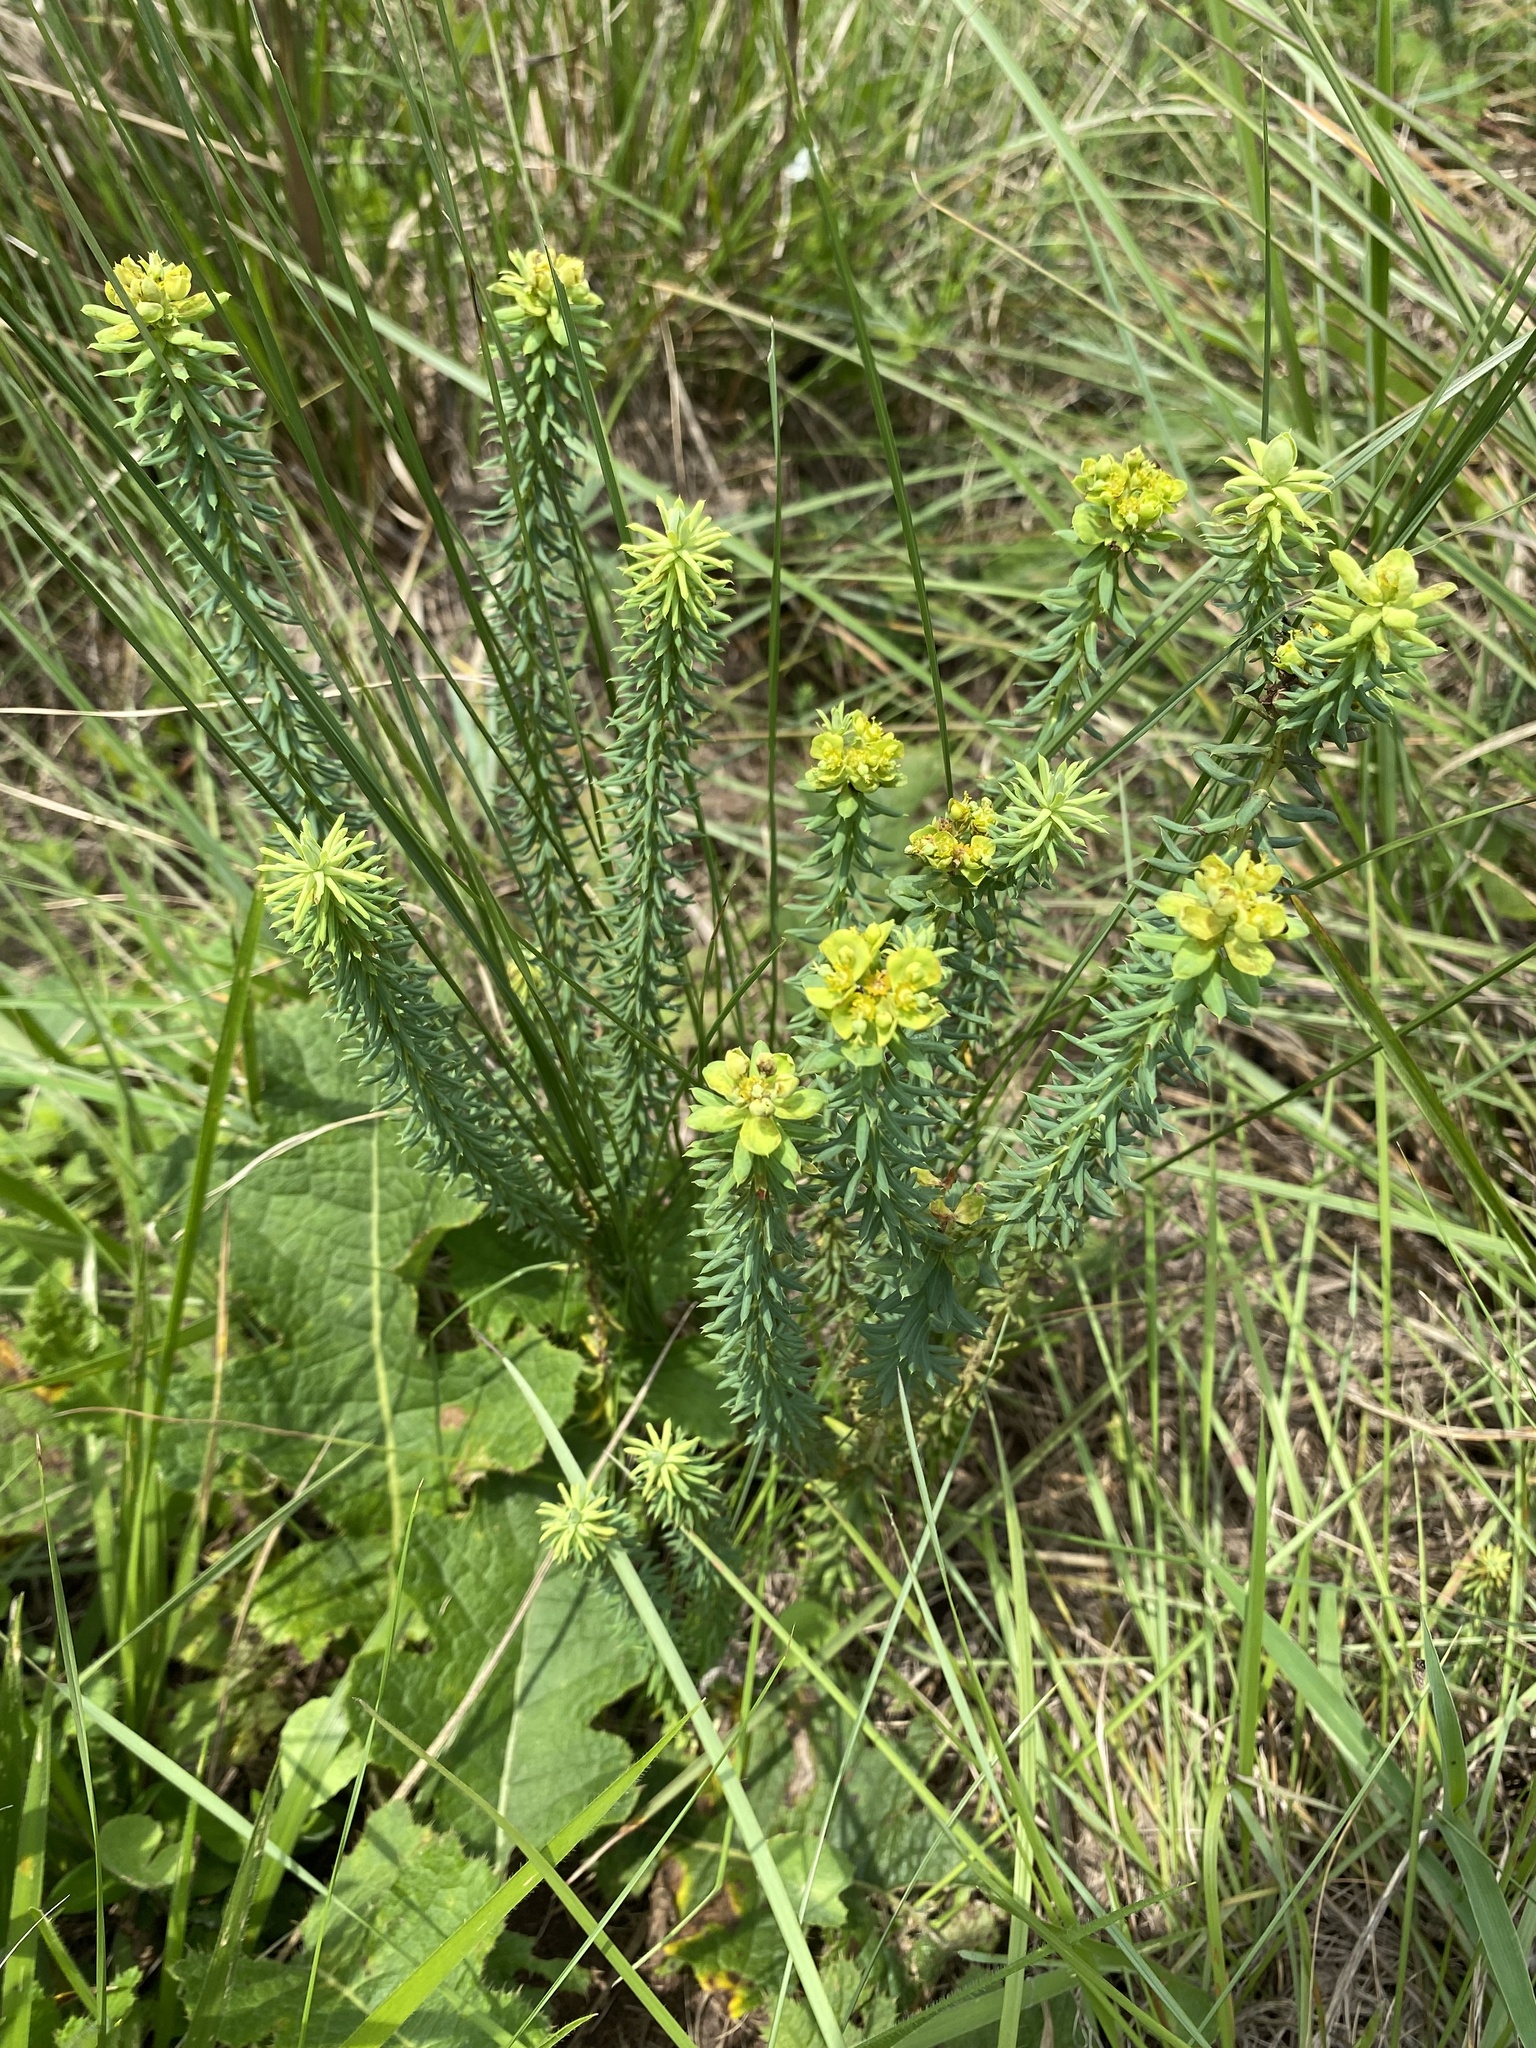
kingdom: Plantae
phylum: Tracheophyta
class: Magnoliopsida
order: Malpighiales
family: Euphorbiaceae
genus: Euphorbia
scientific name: Euphorbia natalensis
